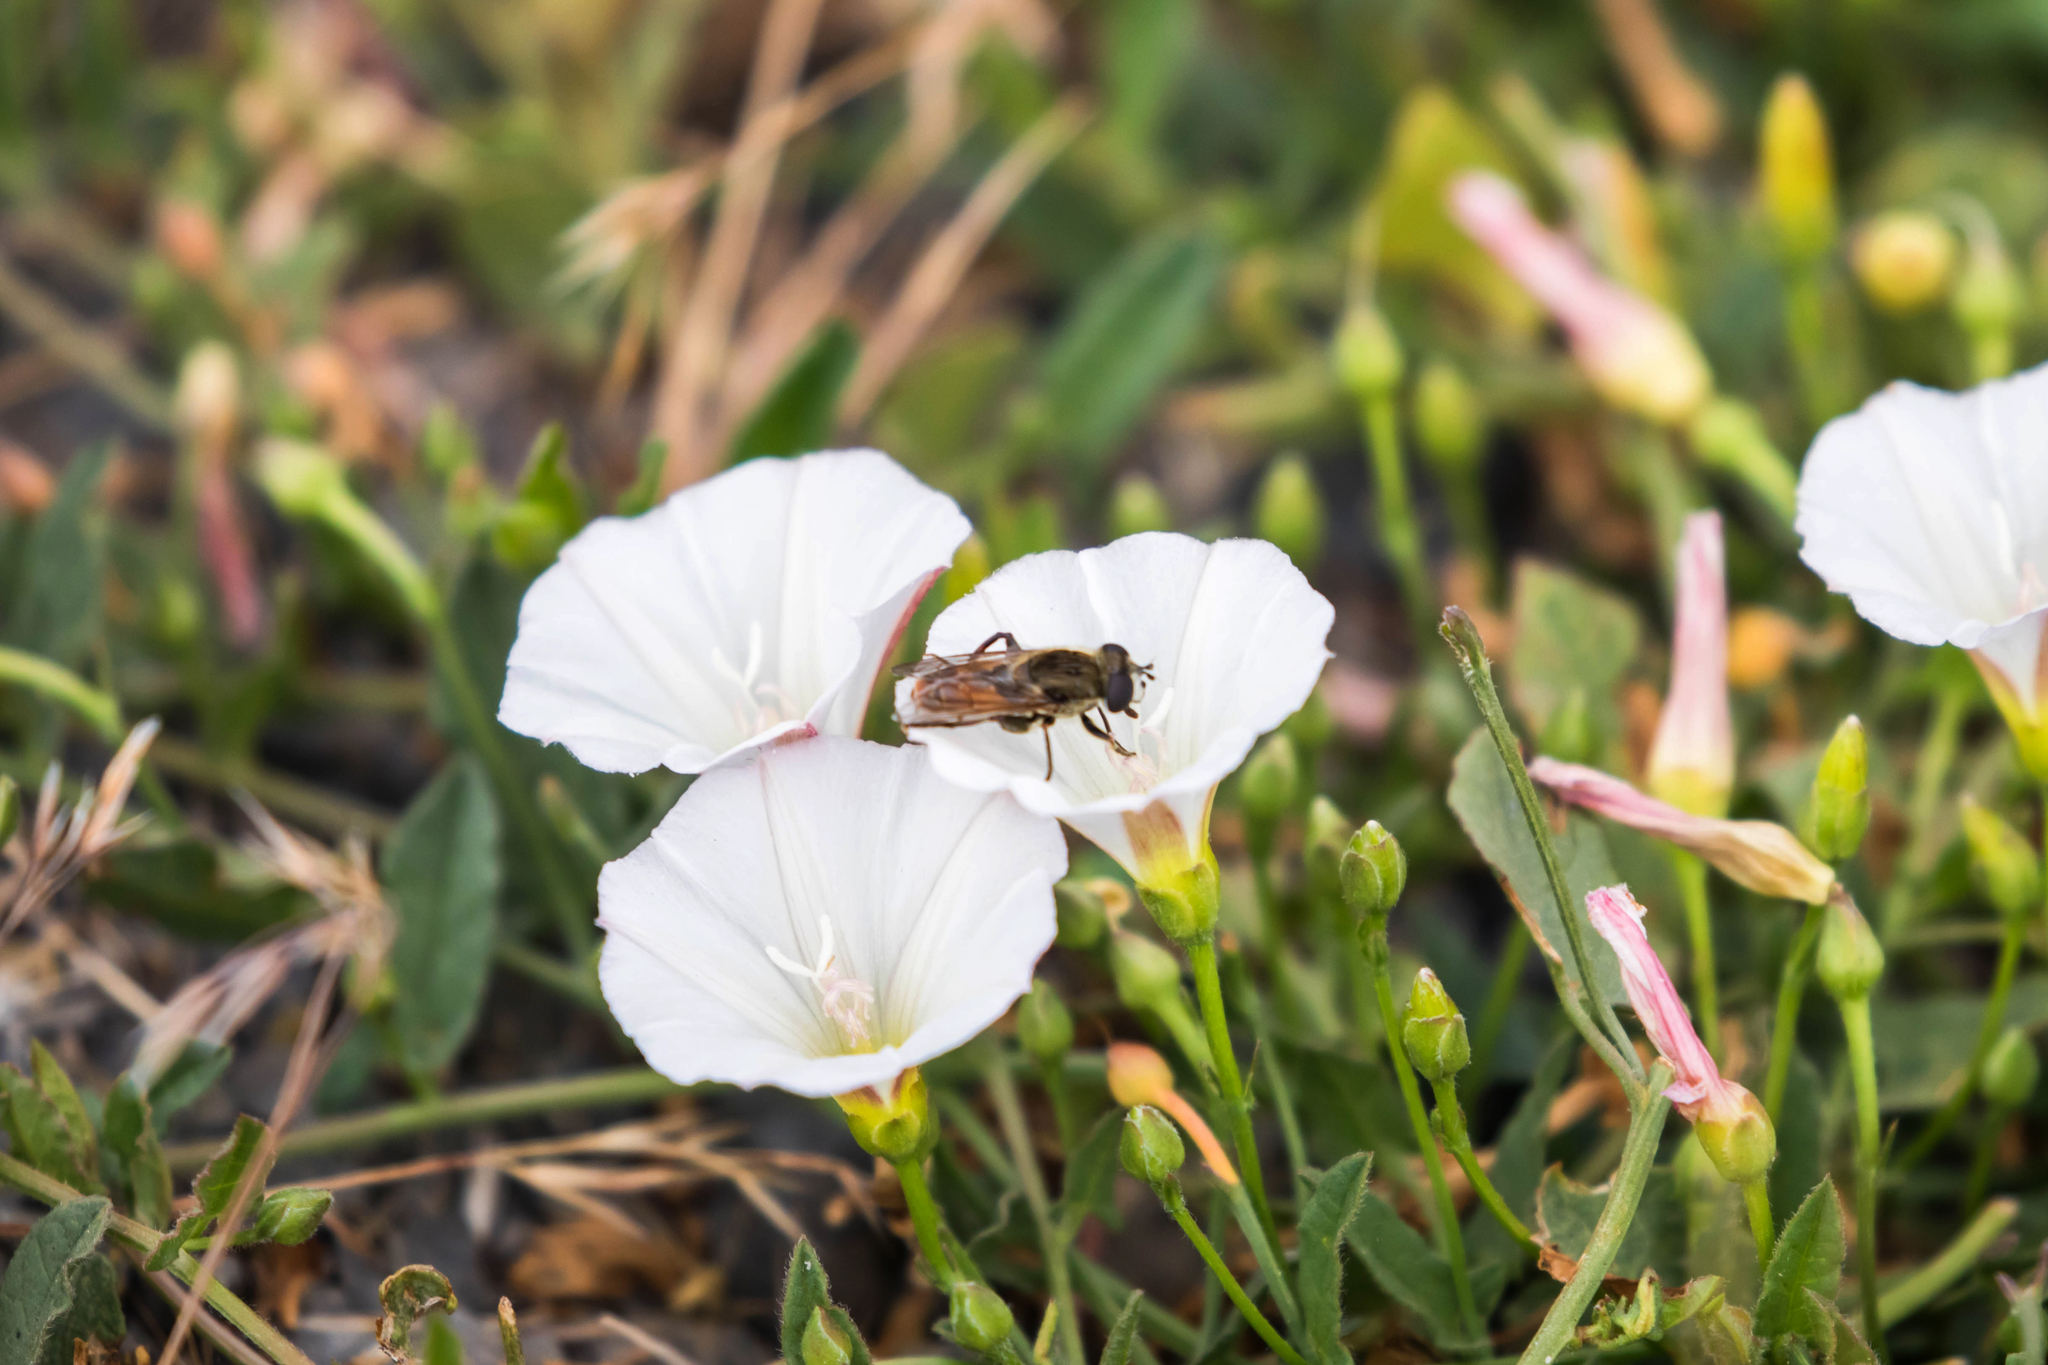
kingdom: Animalia
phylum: Arthropoda
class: Insecta
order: Diptera
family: Syrphidae
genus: Polydontomyia
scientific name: Polydontomyia curvipes
